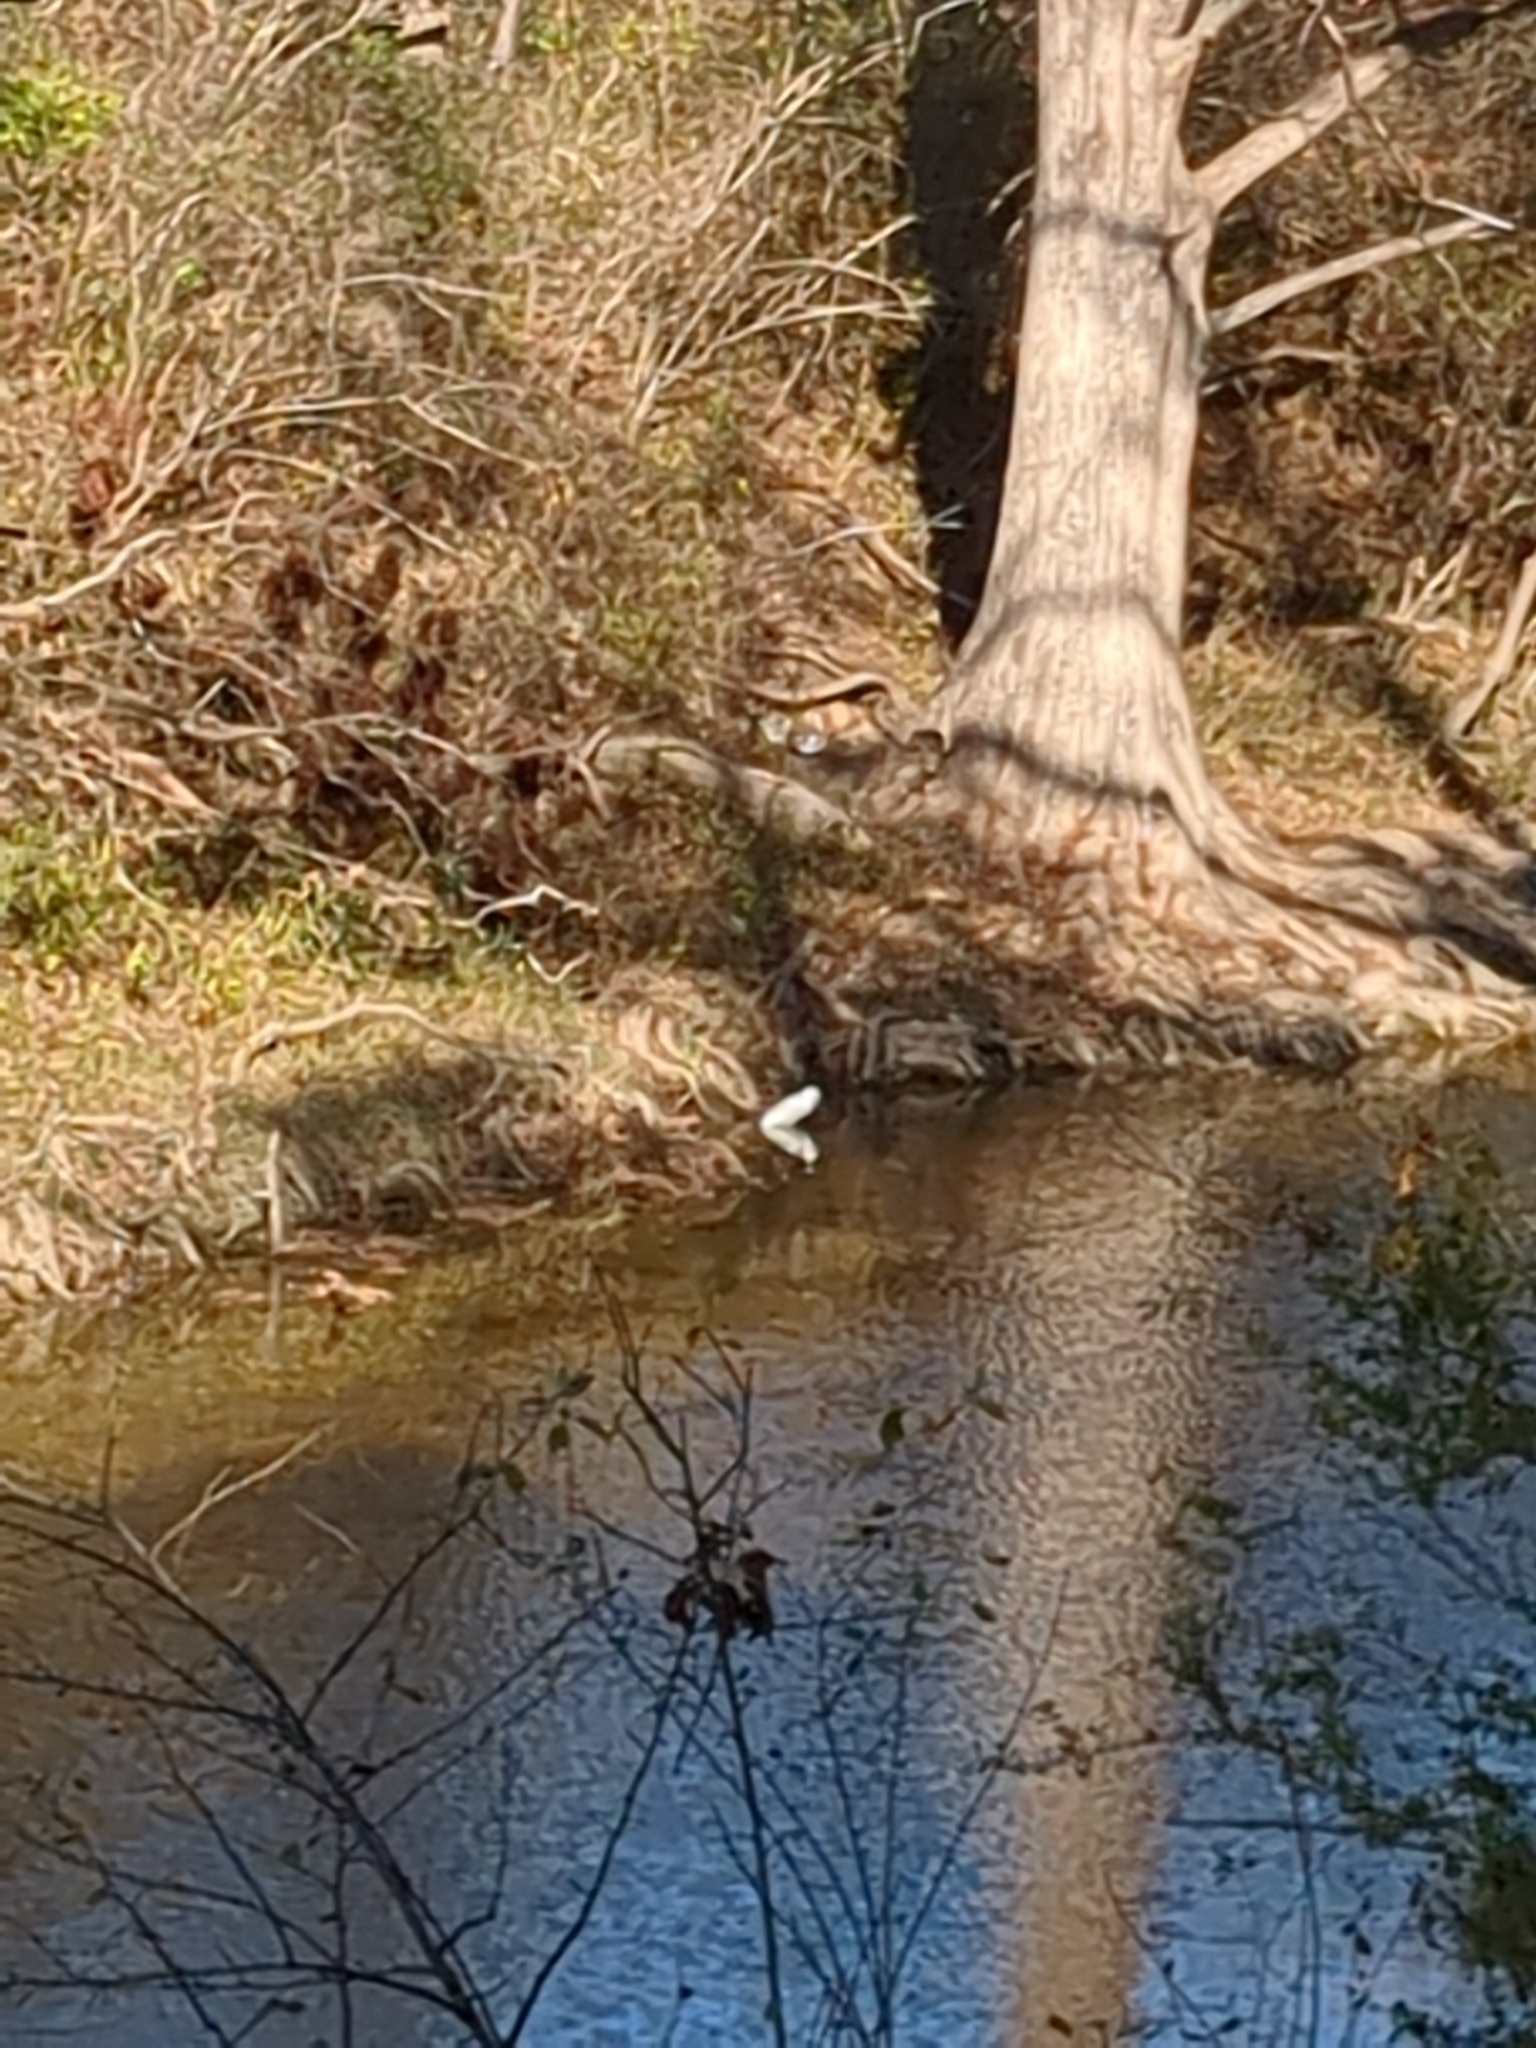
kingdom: Animalia
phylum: Chordata
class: Aves
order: Pelecaniformes
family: Ardeidae
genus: Ardea
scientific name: Ardea alba
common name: Great egret
